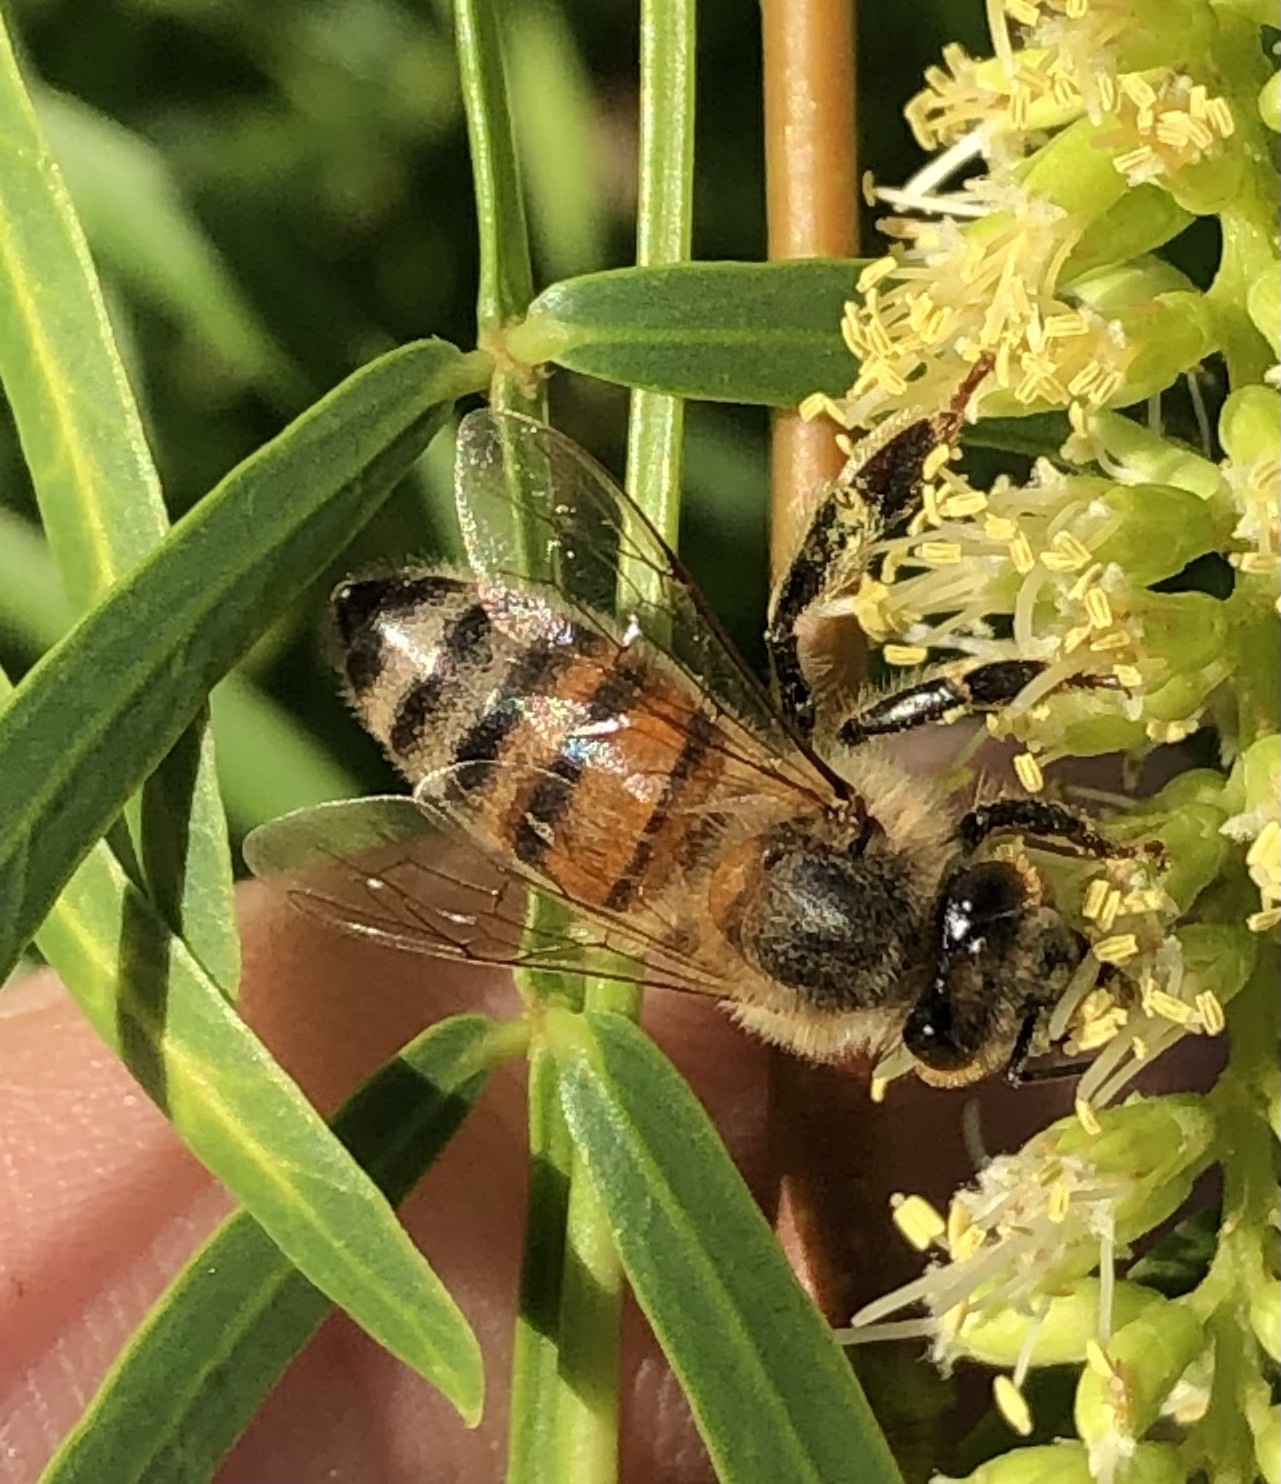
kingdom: Animalia
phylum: Arthropoda
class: Insecta
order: Hymenoptera
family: Apidae
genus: Apis
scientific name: Apis mellifera
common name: Honey bee
